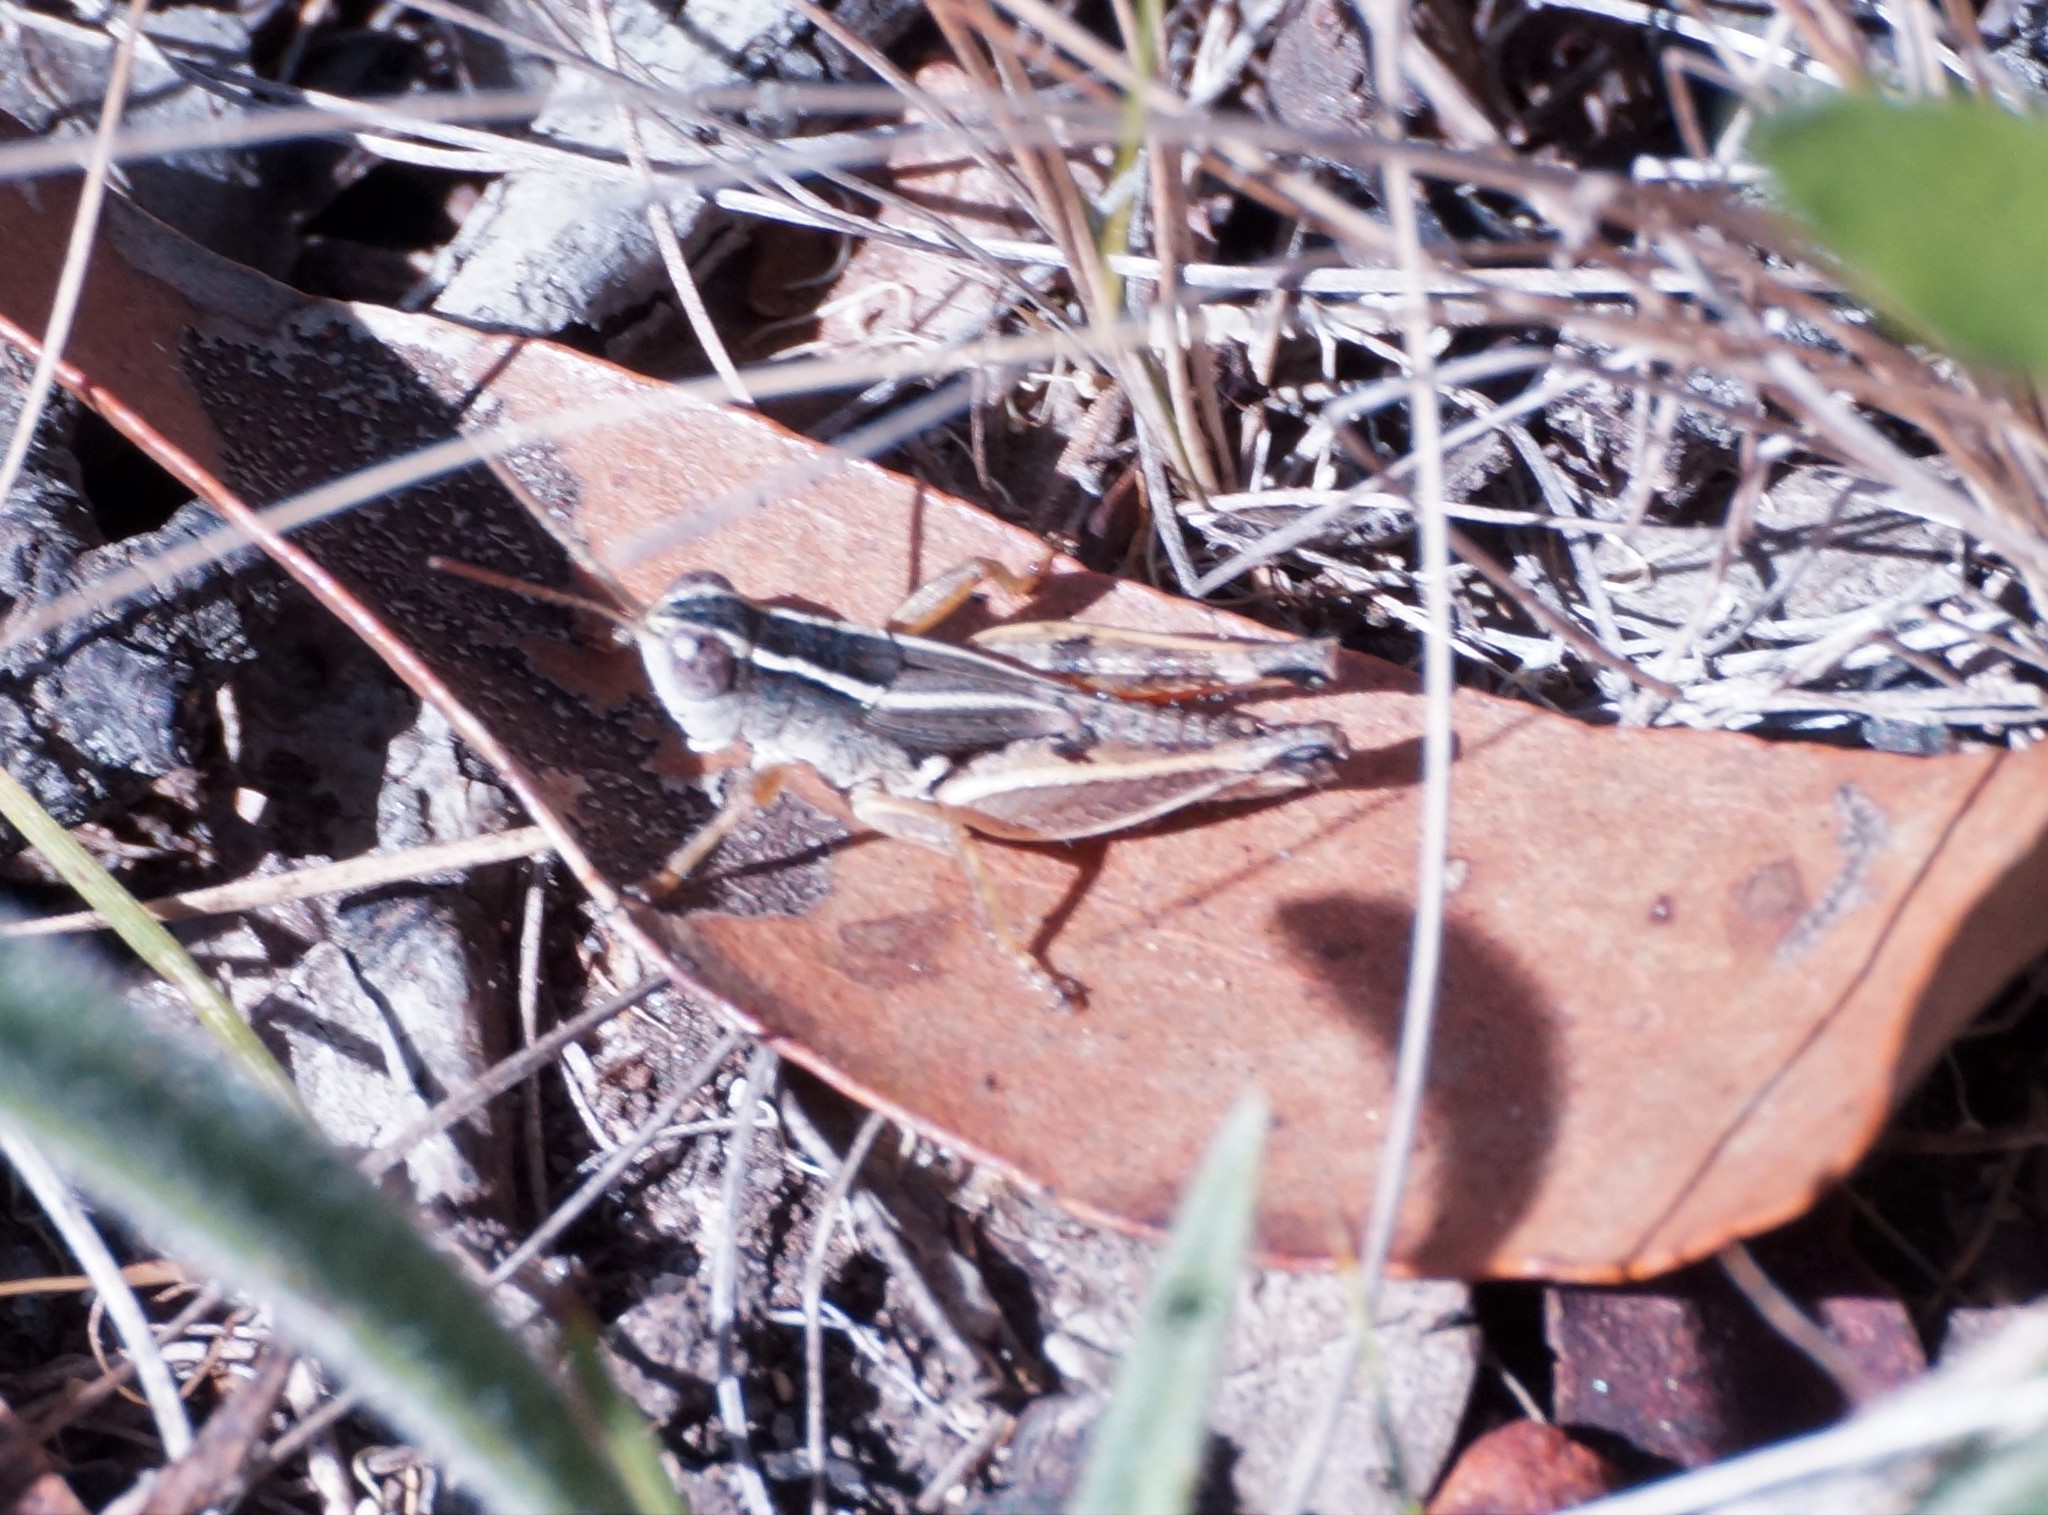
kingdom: Animalia
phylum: Arthropoda
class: Insecta
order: Orthoptera
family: Acrididae
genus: Phaulacridium
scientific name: Phaulacridium vittatum
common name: Wingless grasshopper
